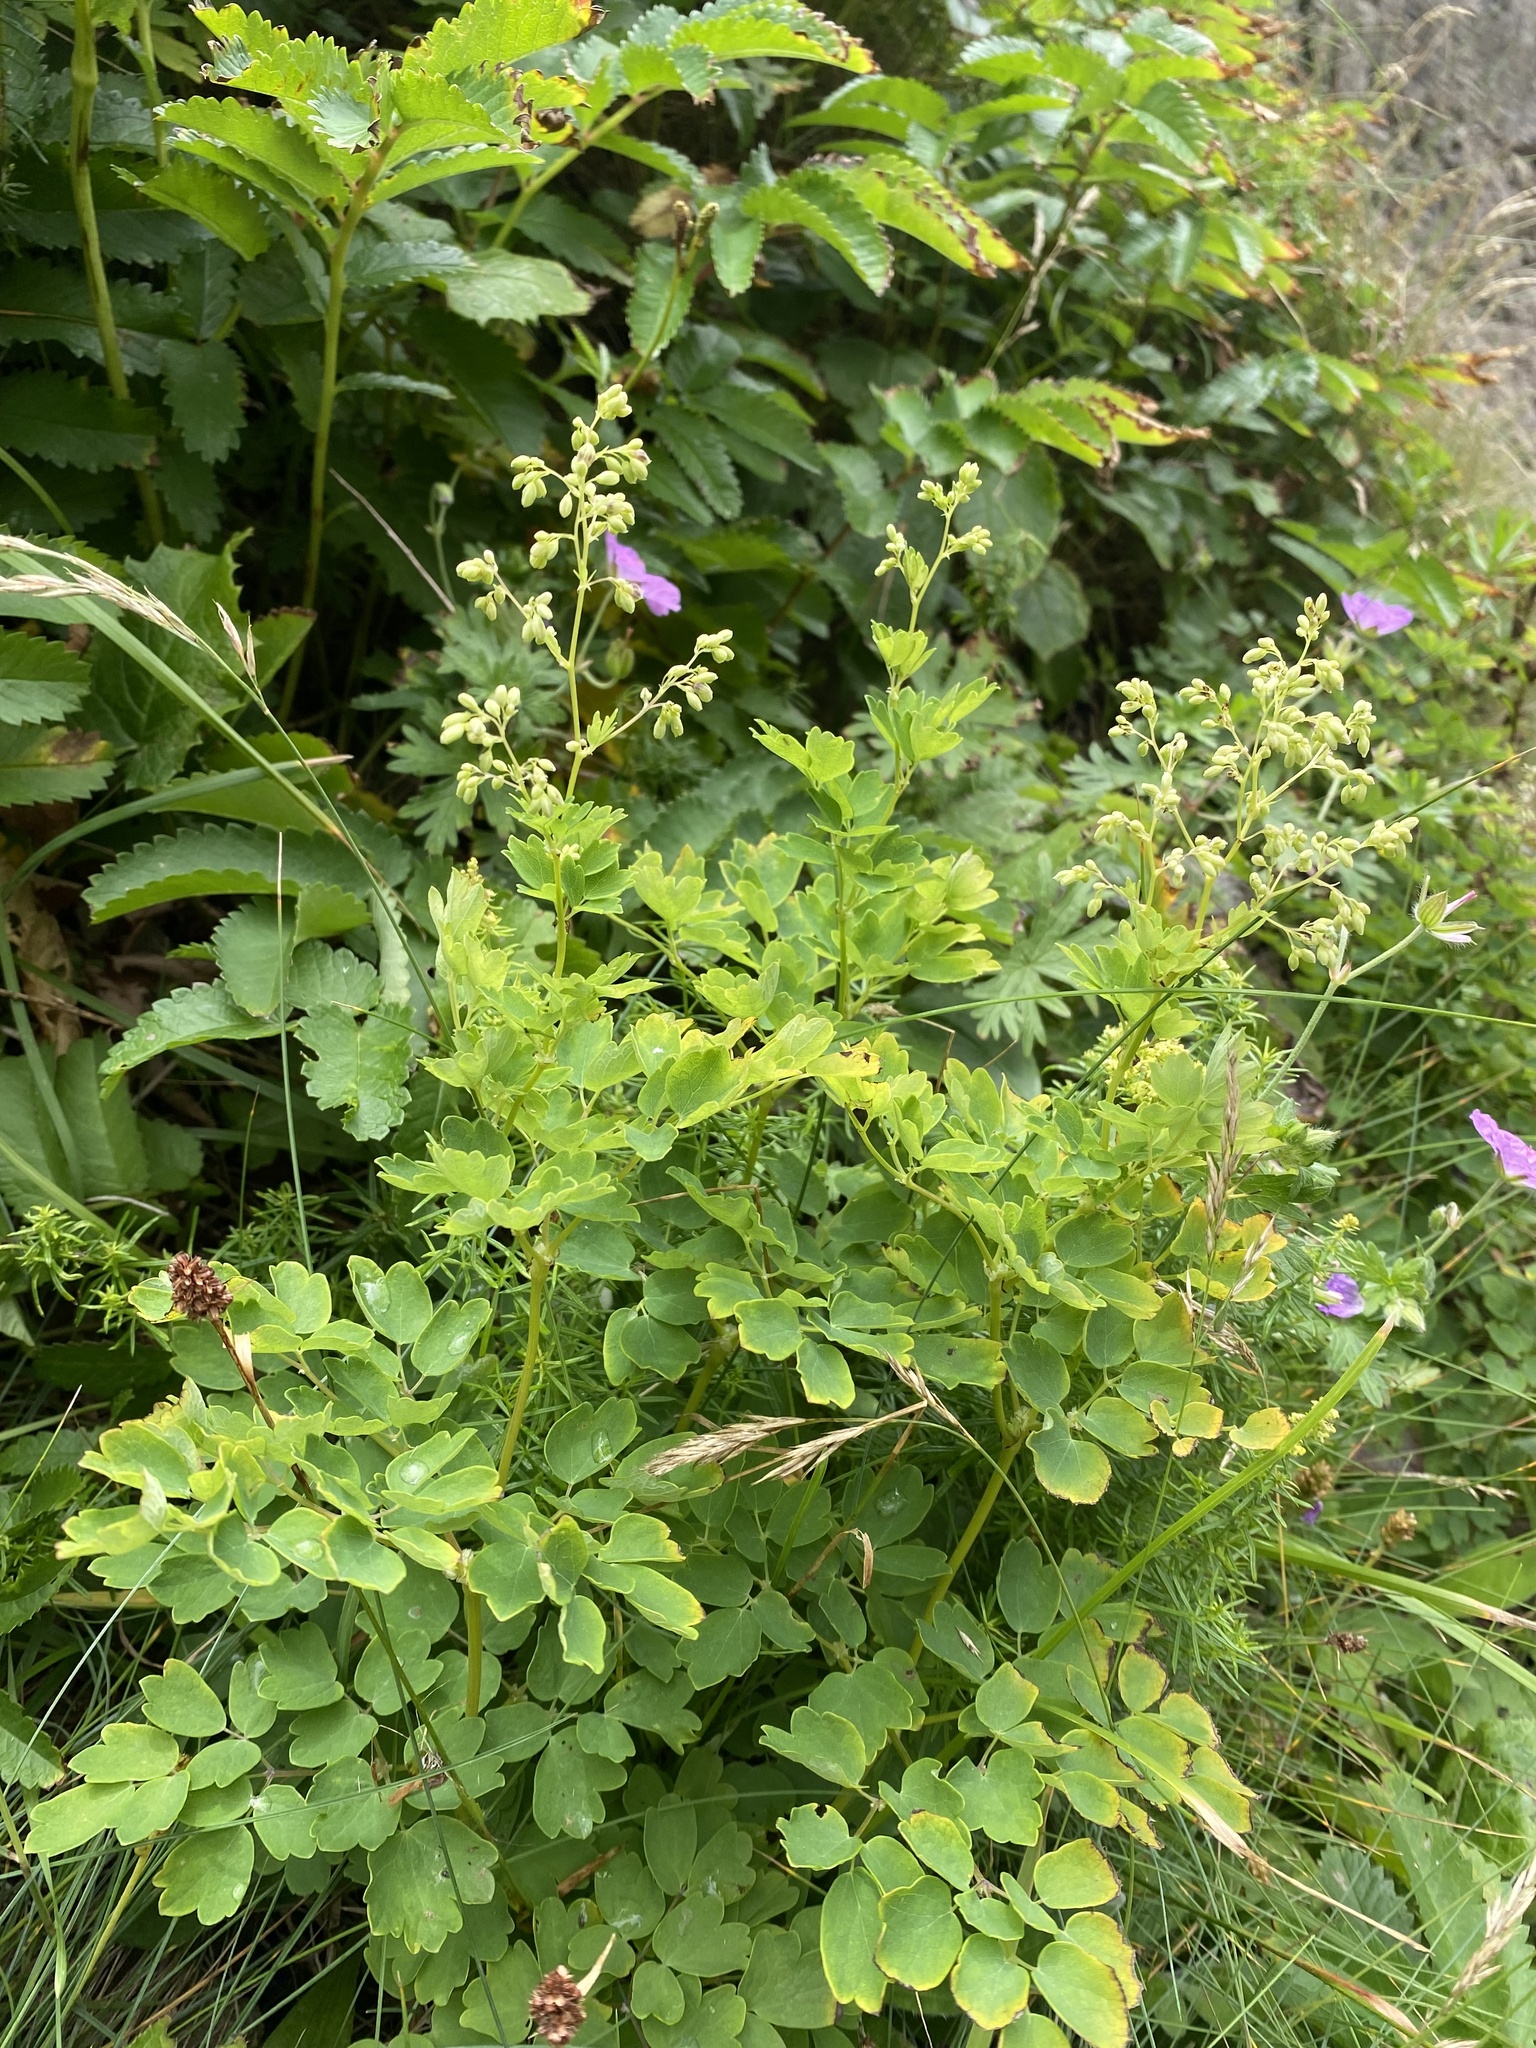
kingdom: Plantae
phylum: Tracheophyta
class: Magnoliopsida
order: Ranunculales
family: Ranunculaceae
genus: Thalictrum
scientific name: Thalictrum minus
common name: Lesser meadow-rue
